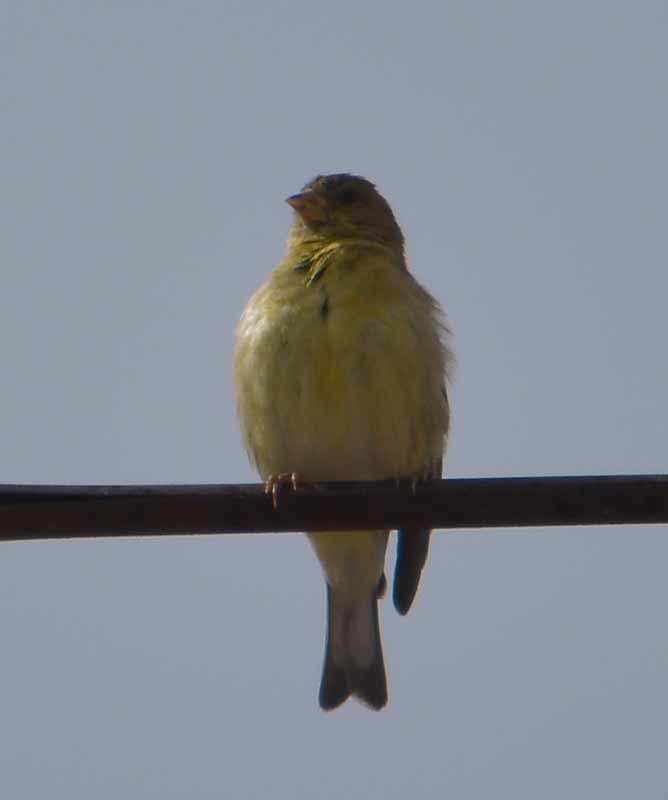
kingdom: Animalia
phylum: Chordata
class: Aves
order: Passeriformes
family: Fringillidae
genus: Spinus
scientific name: Spinus psaltria
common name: Lesser goldfinch
